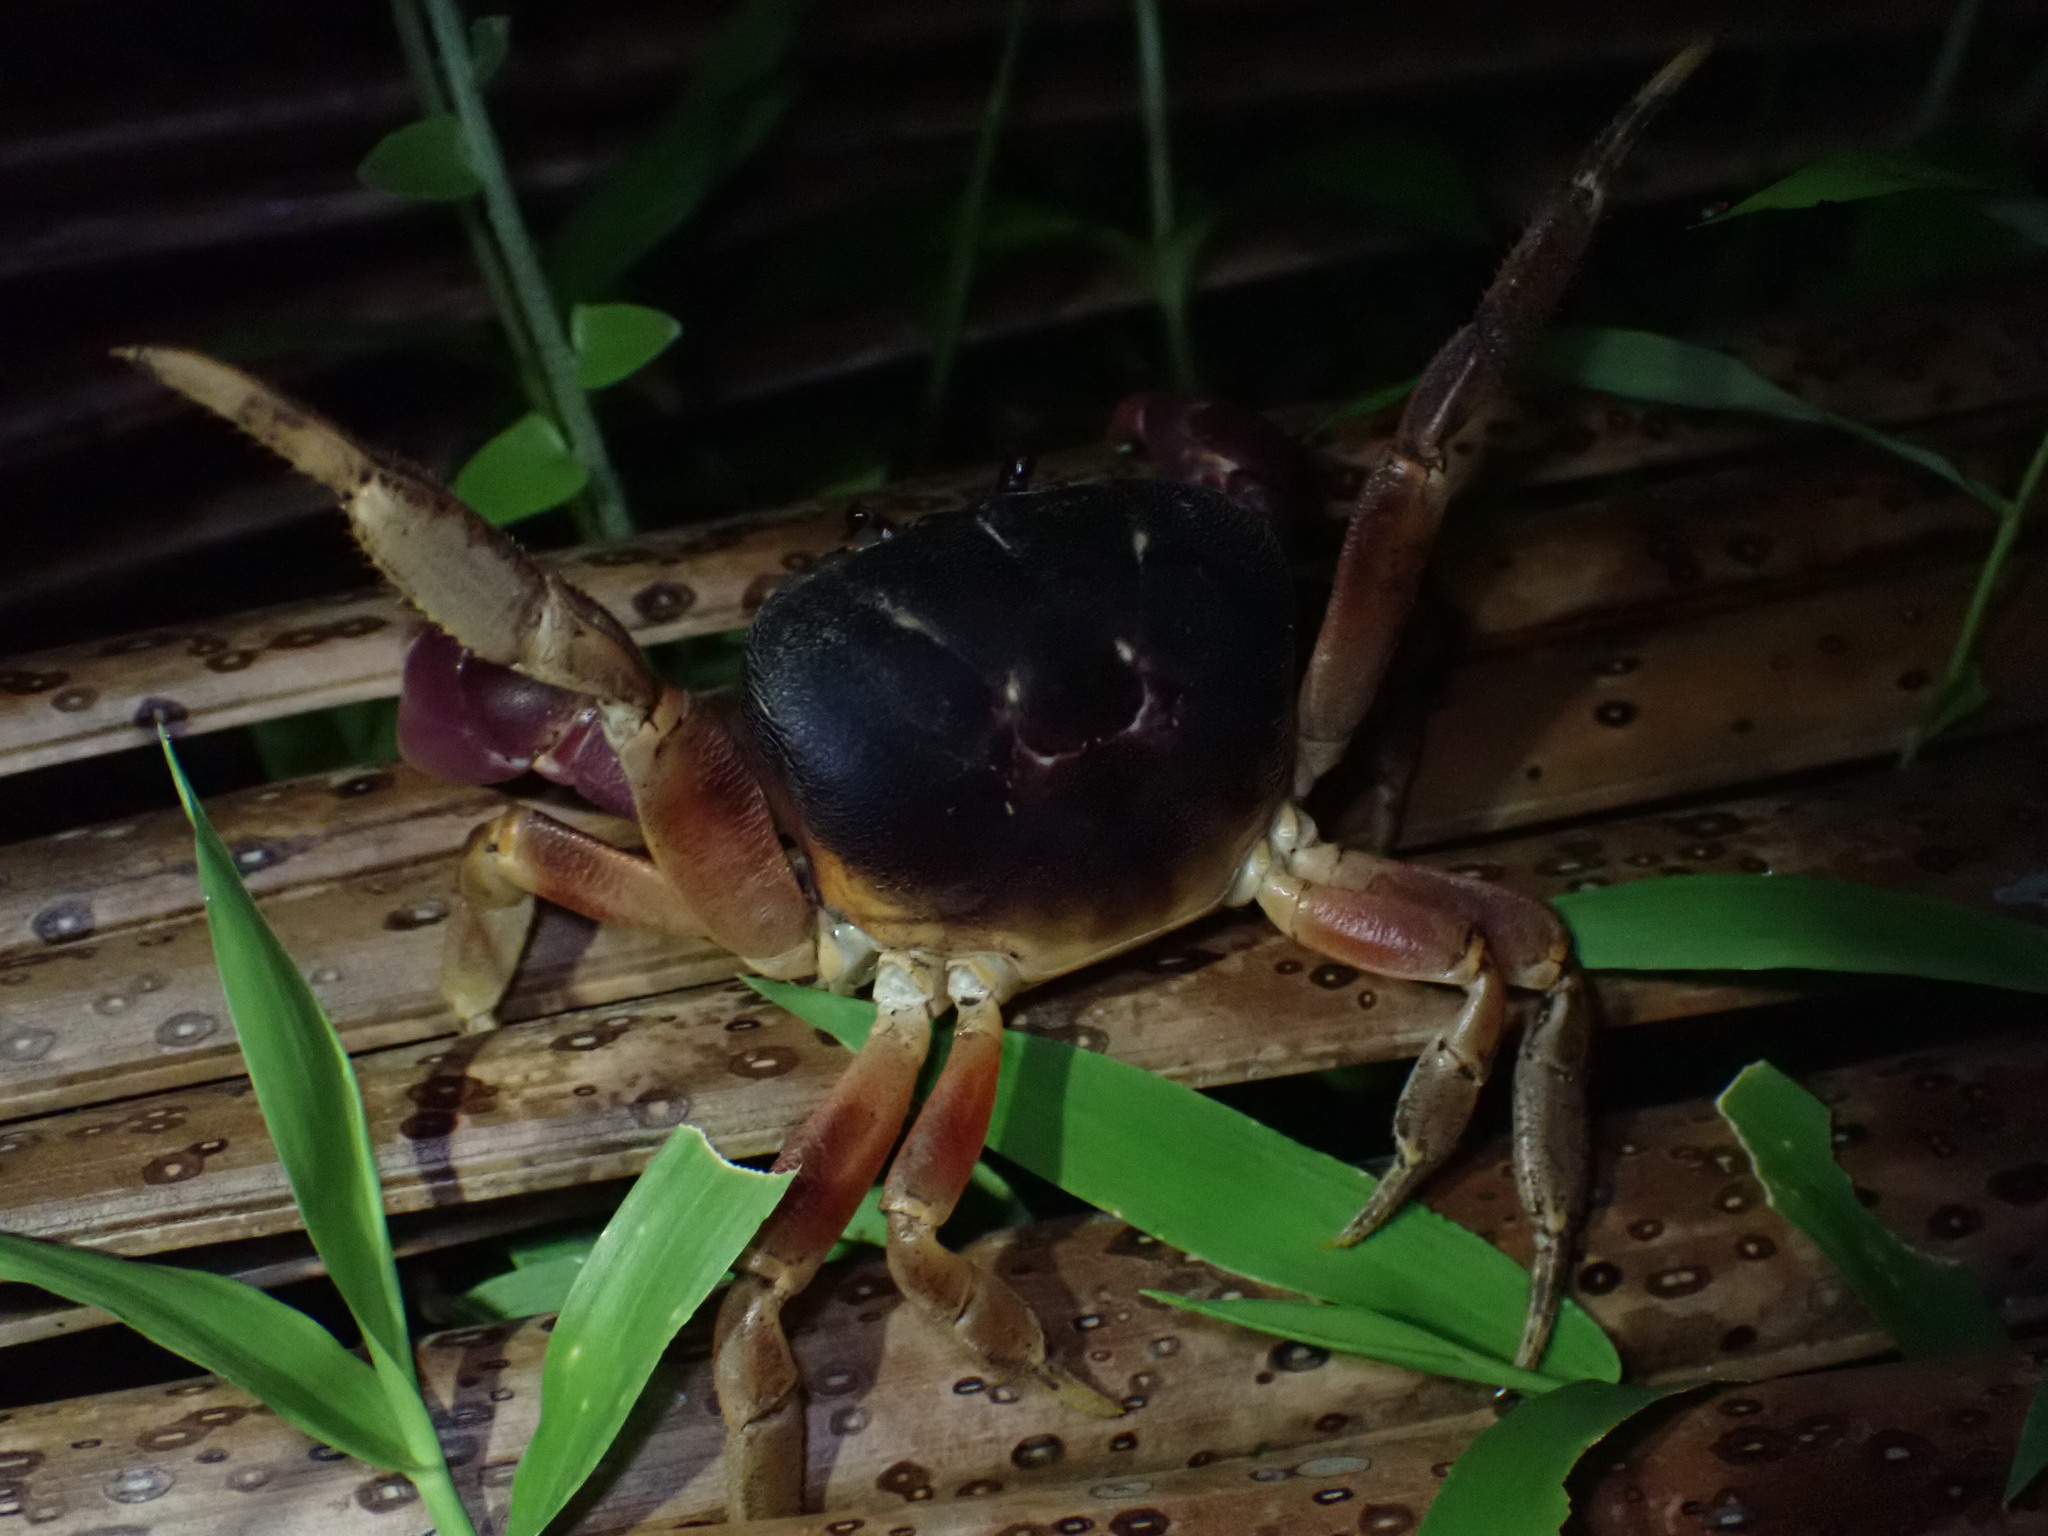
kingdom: Animalia
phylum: Arthropoda
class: Malacostraca
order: Decapoda
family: Gecarcinidae
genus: Gecarcoidea
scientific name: Gecarcoidea lalandii
